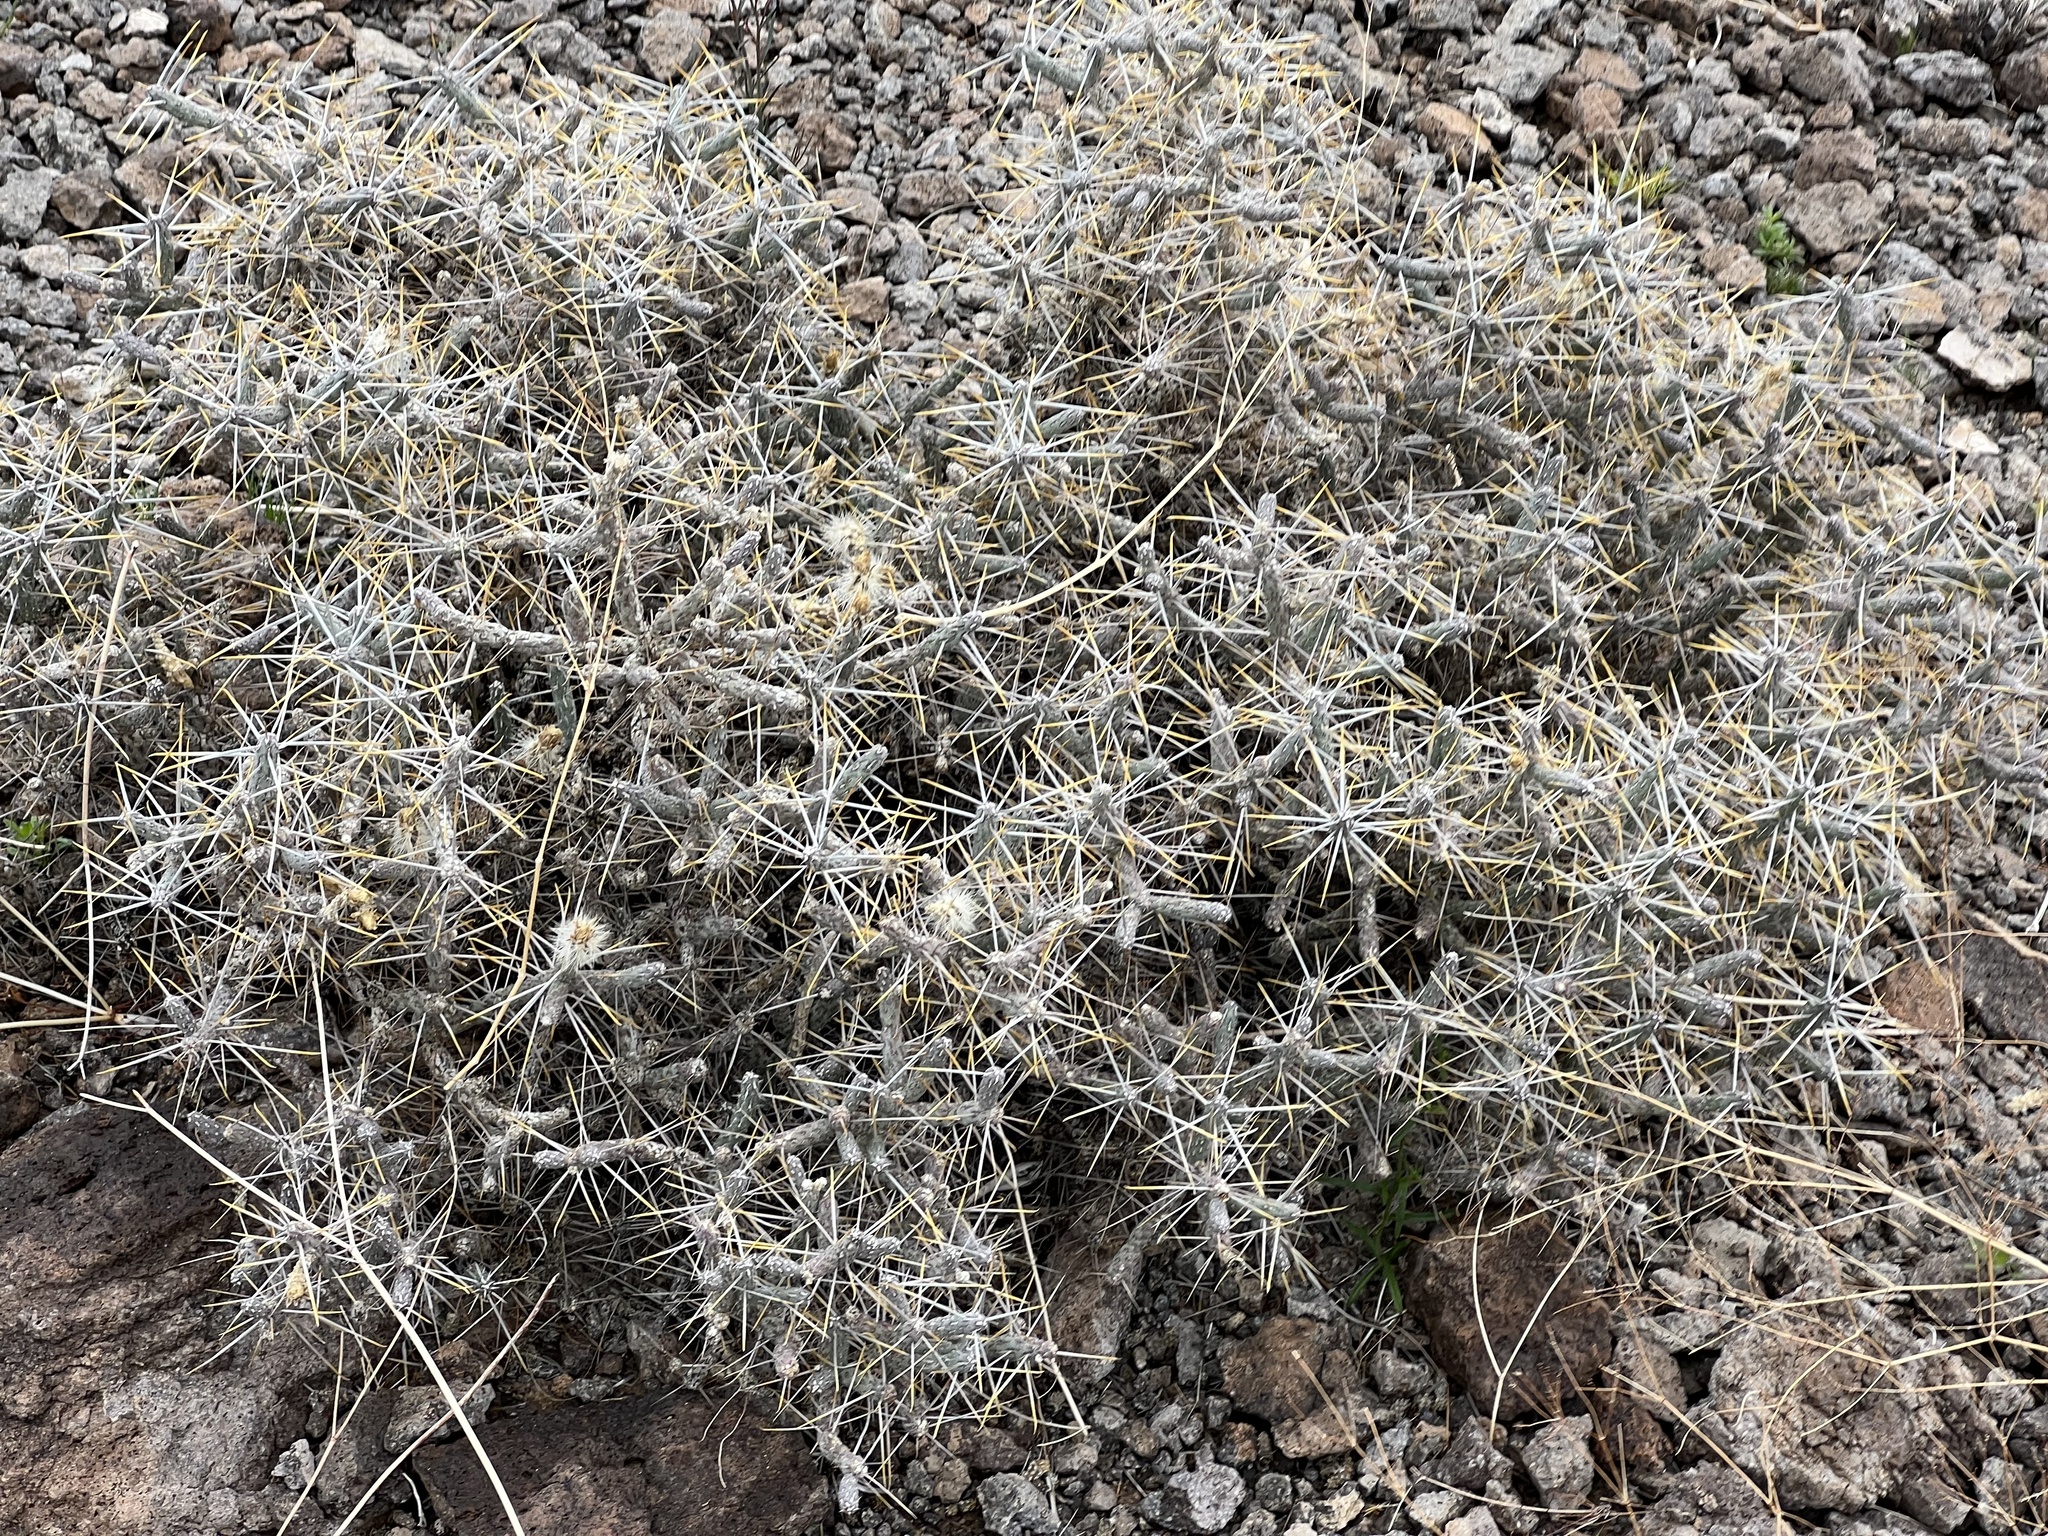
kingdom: Plantae
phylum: Tracheophyta
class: Magnoliopsida
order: Caryophyllales
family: Cactaceae
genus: Cylindropuntia
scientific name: Cylindropuntia ramosissima
